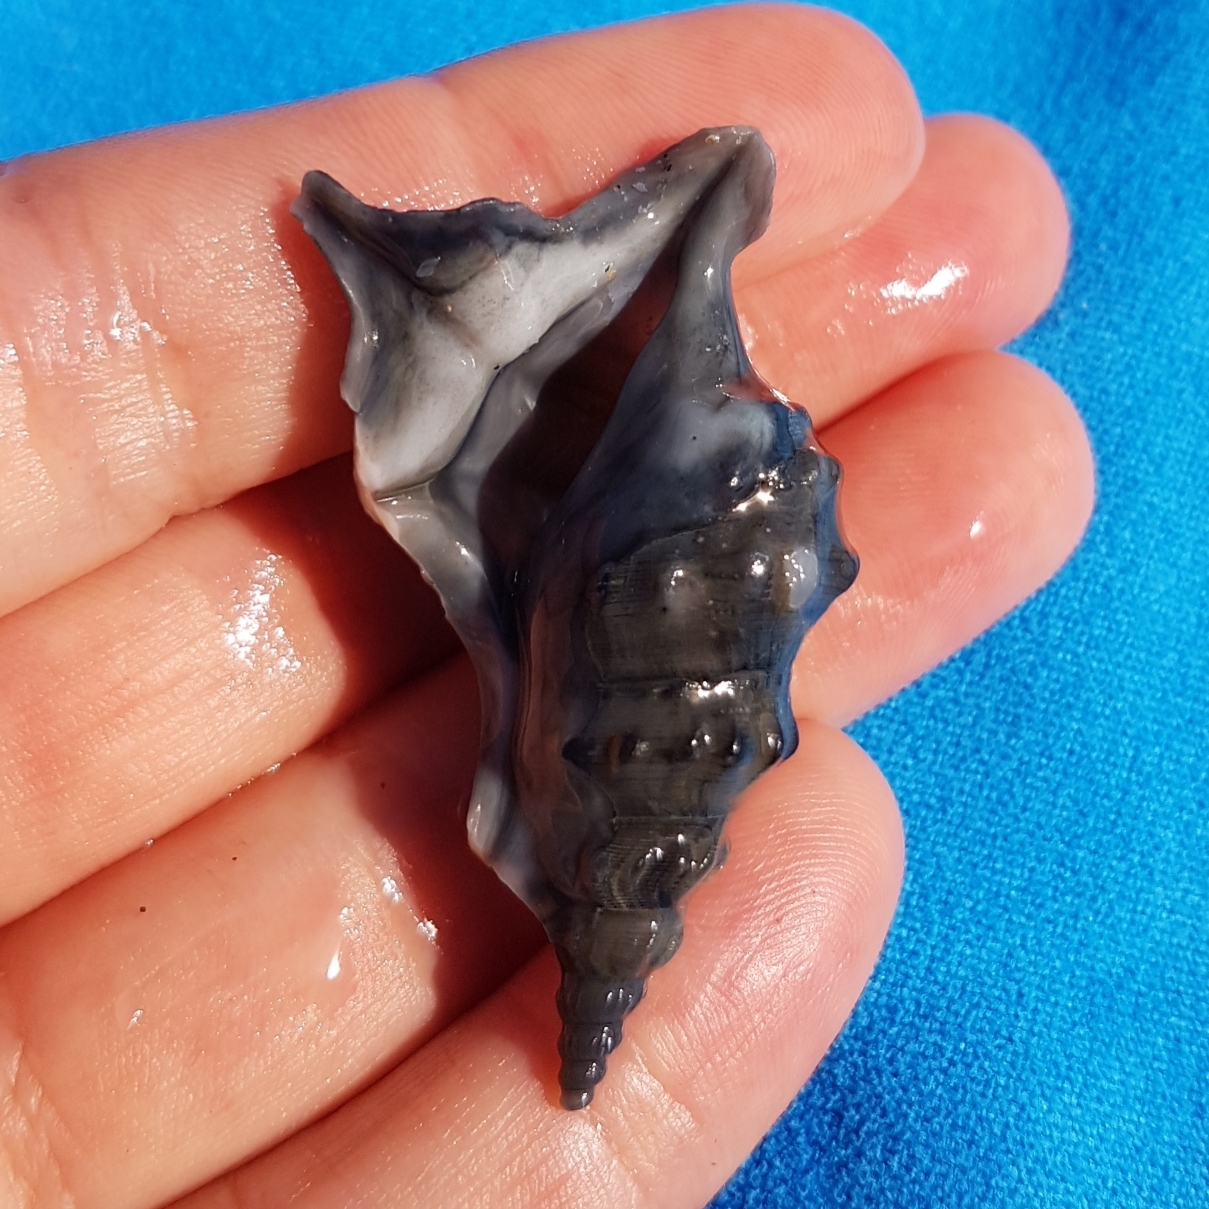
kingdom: Animalia
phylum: Mollusca
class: Gastropoda
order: Littorinimorpha
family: Aporrhaidae
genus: Aporrhais
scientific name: Aporrhais pespelecani
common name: Common pelican’s foot
